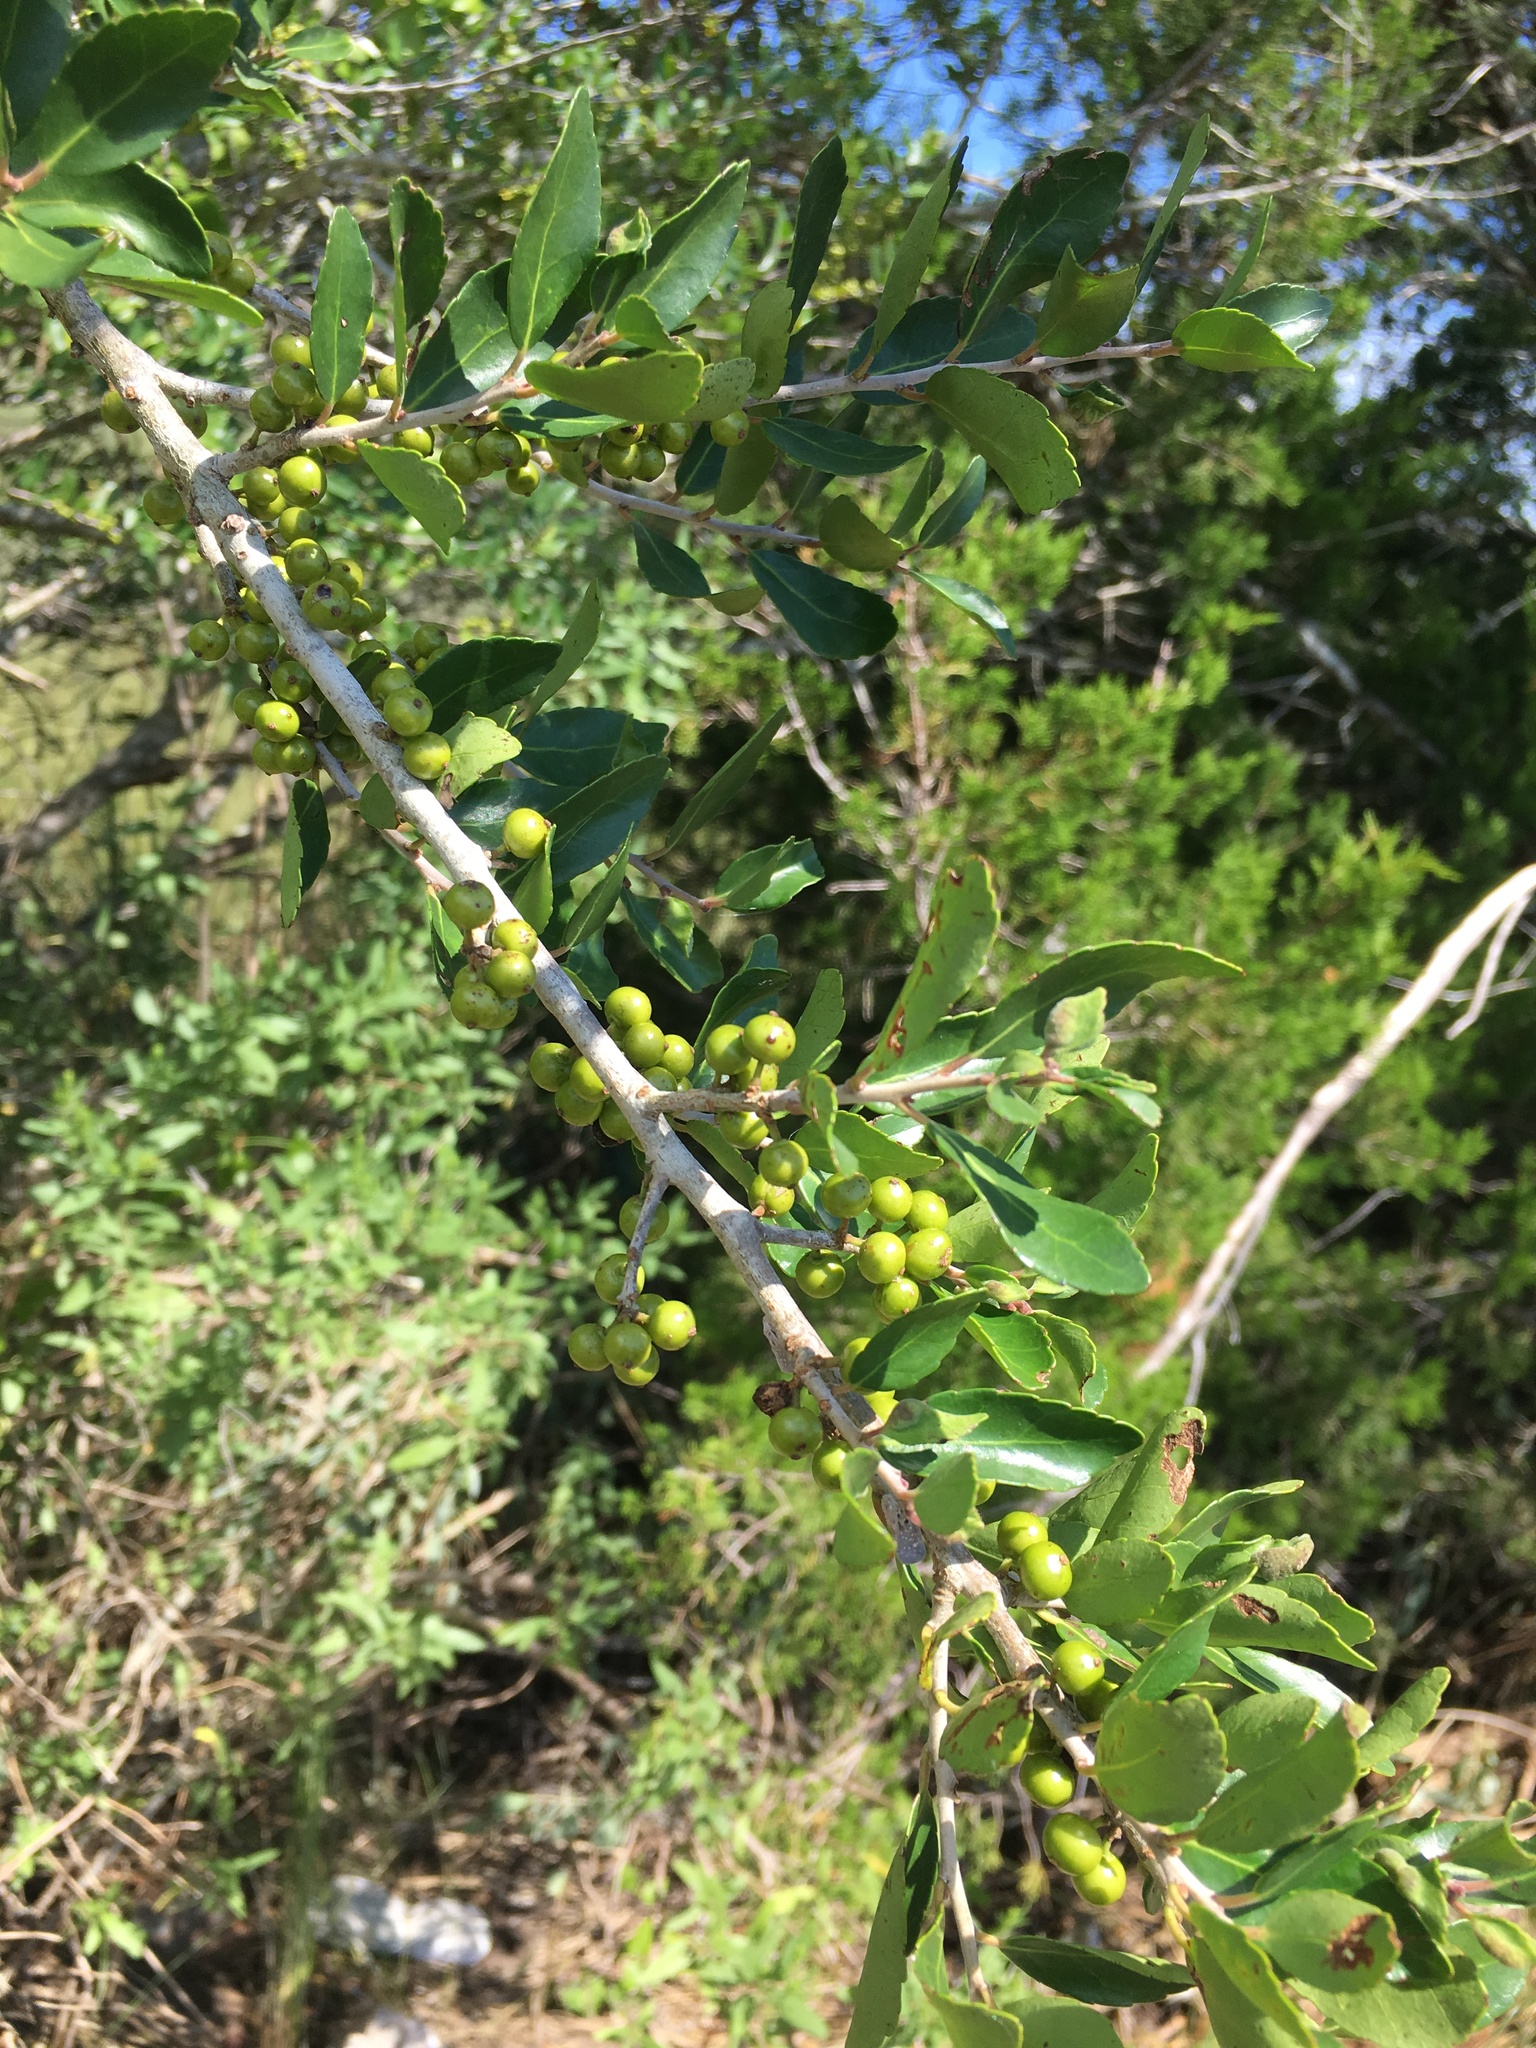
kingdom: Plantae
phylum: Tracheophyta
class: Magnoliopsida
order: Aquifoliales
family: Aquifoliaceae
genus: Ilex
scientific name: Ilex vomitoria
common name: Yaupon holly
